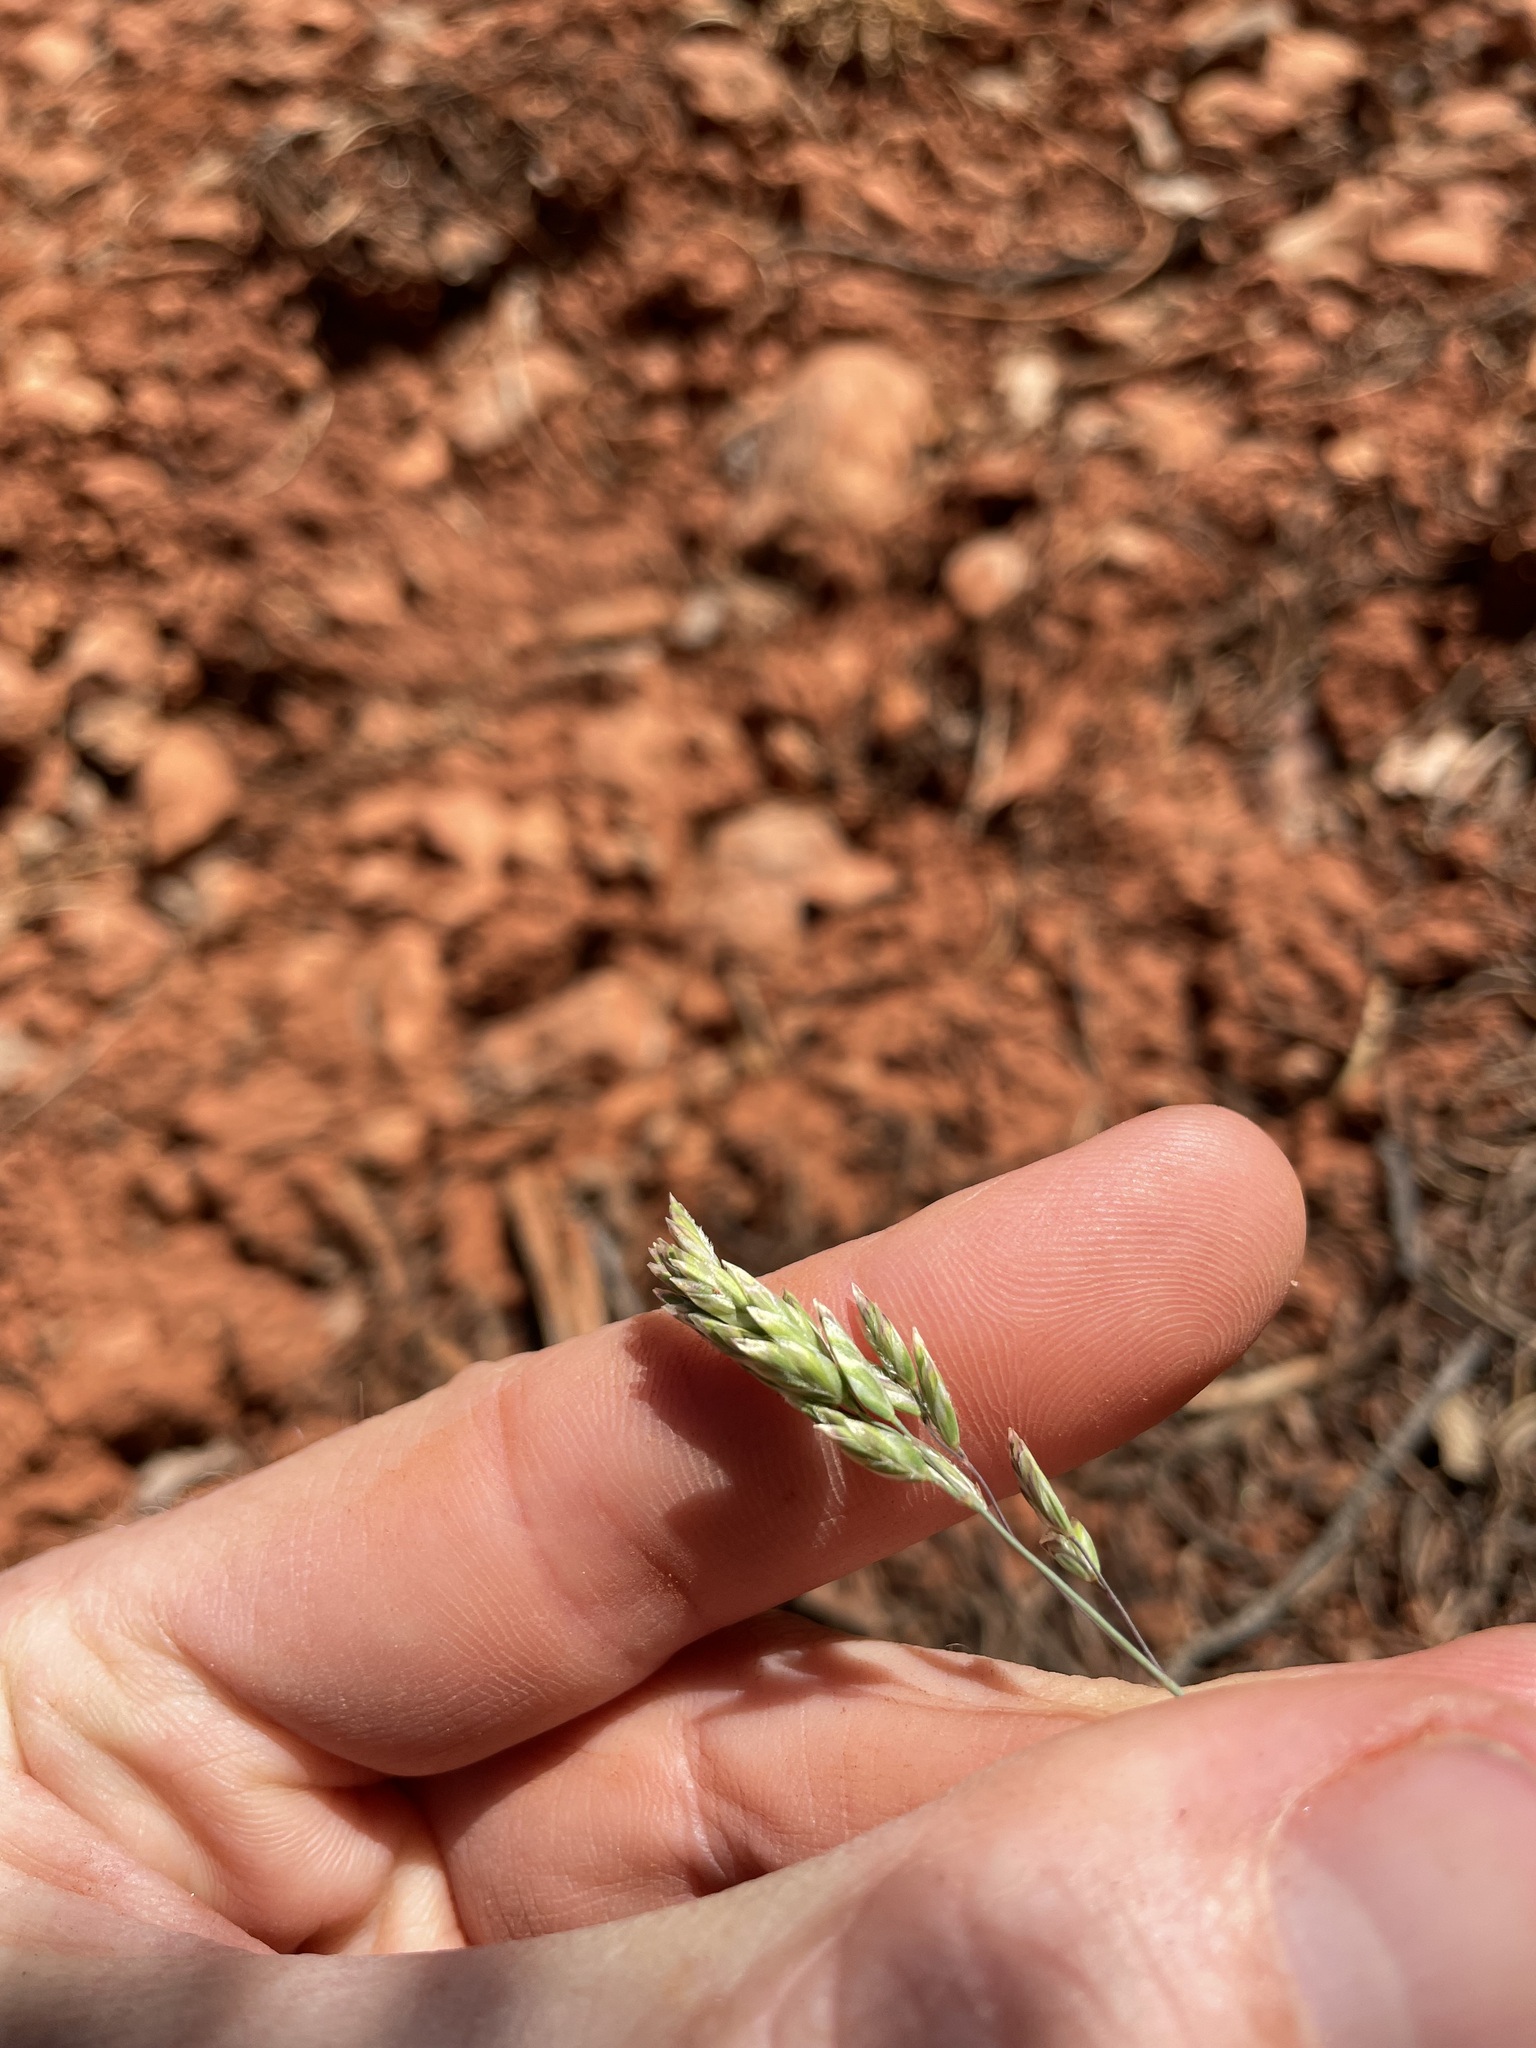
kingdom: Plantae
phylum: Tracheophyta
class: Liliopsida
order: Poales
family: Poaceae
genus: Poa
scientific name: Poa fendleriana
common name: Mutton bluegrass
